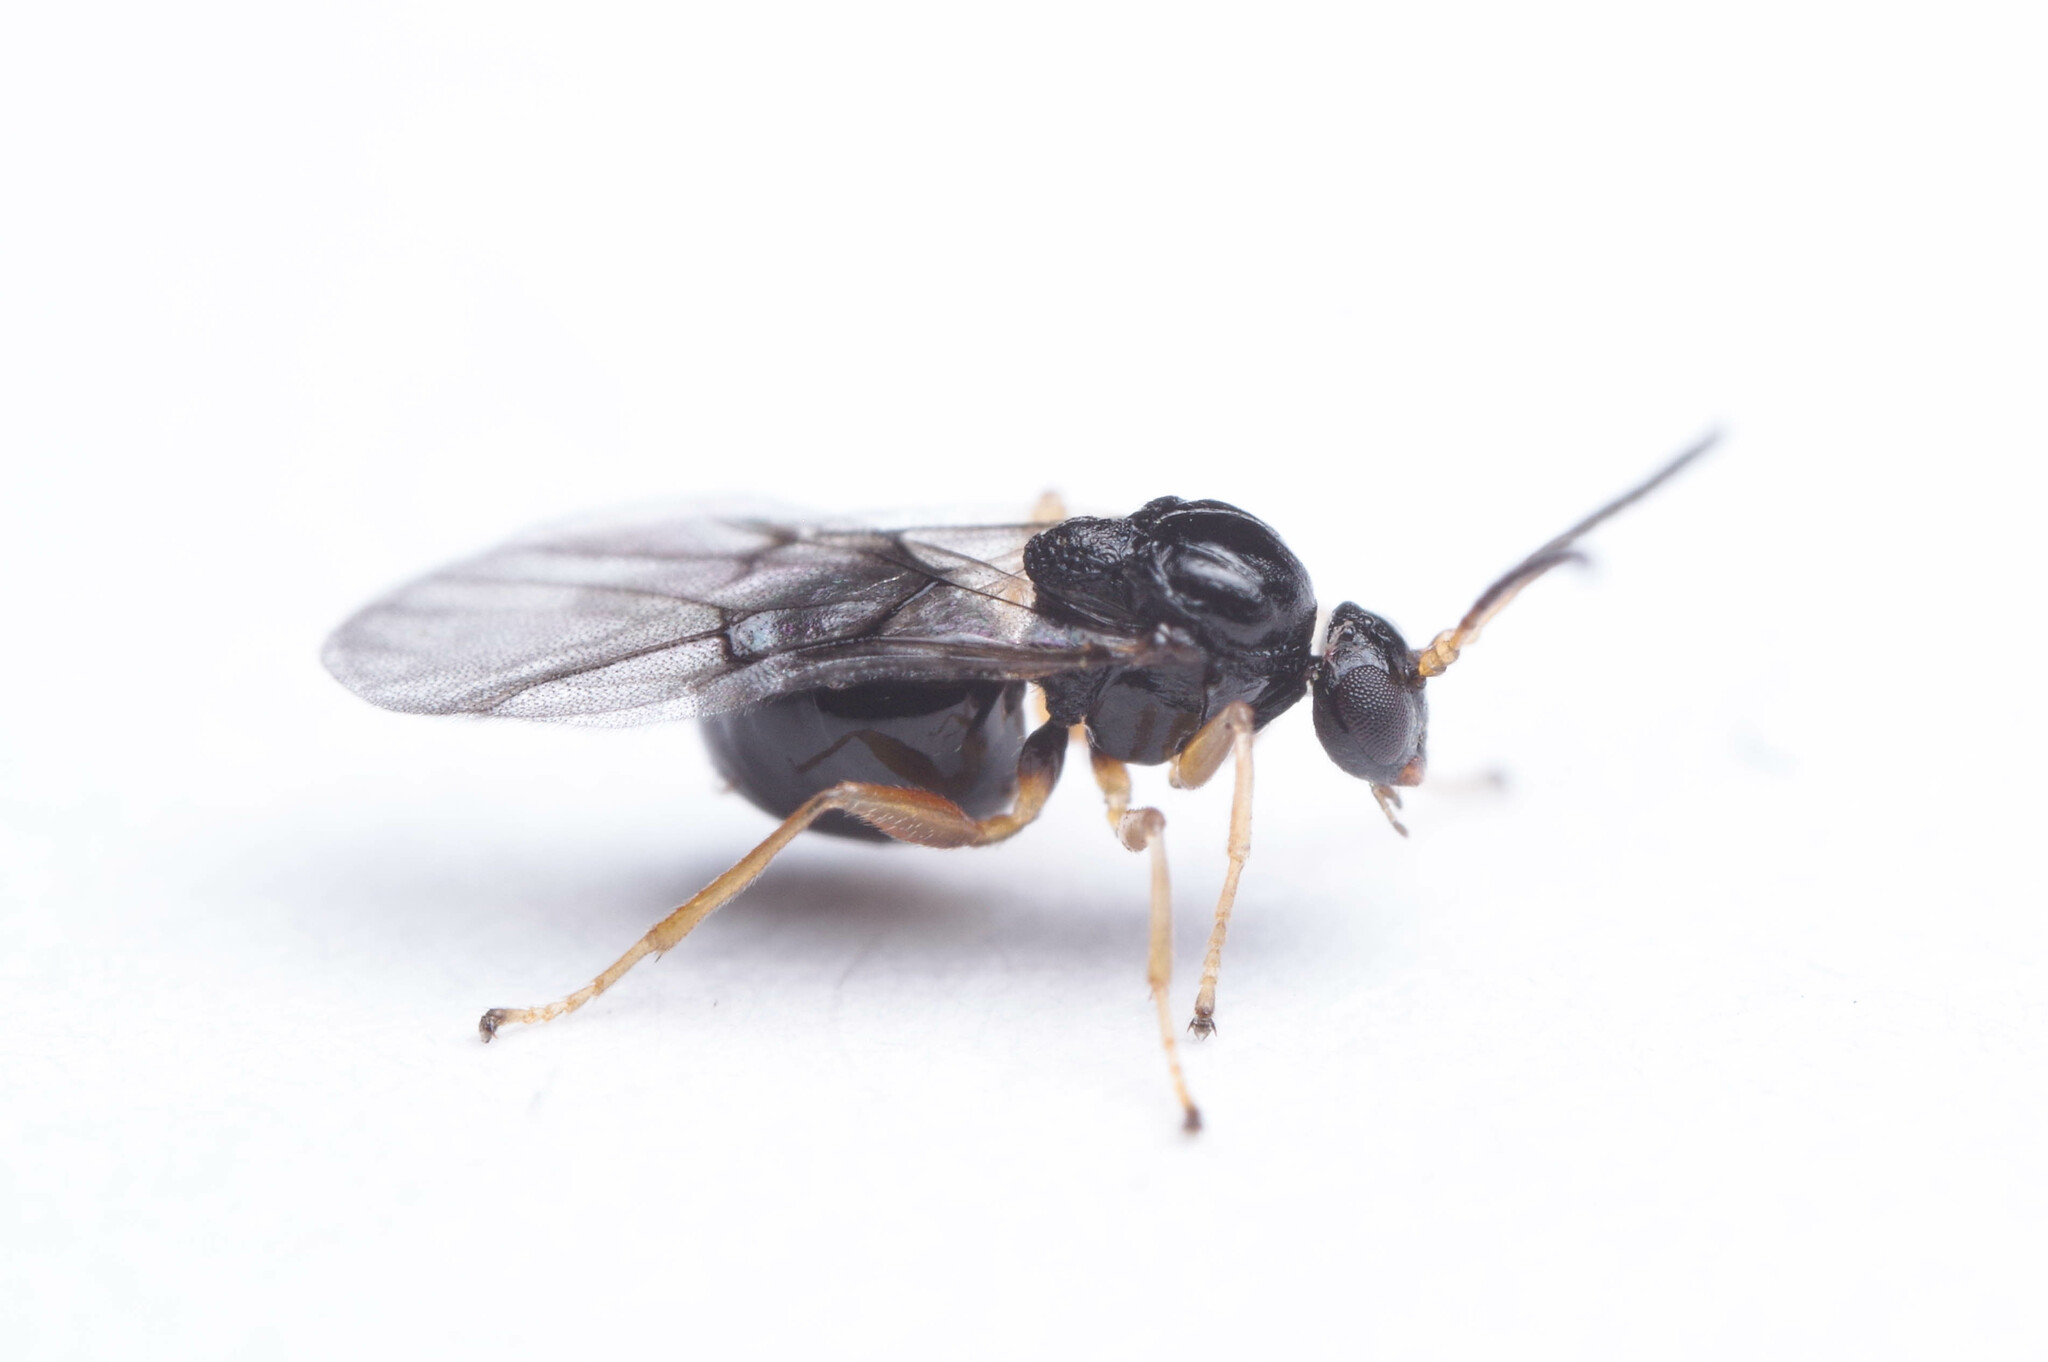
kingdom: Animalia
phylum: Arthropoda
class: Insecta
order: Hymenoptera
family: Cynipidae
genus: Disholcaspis
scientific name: Disholcaspis
